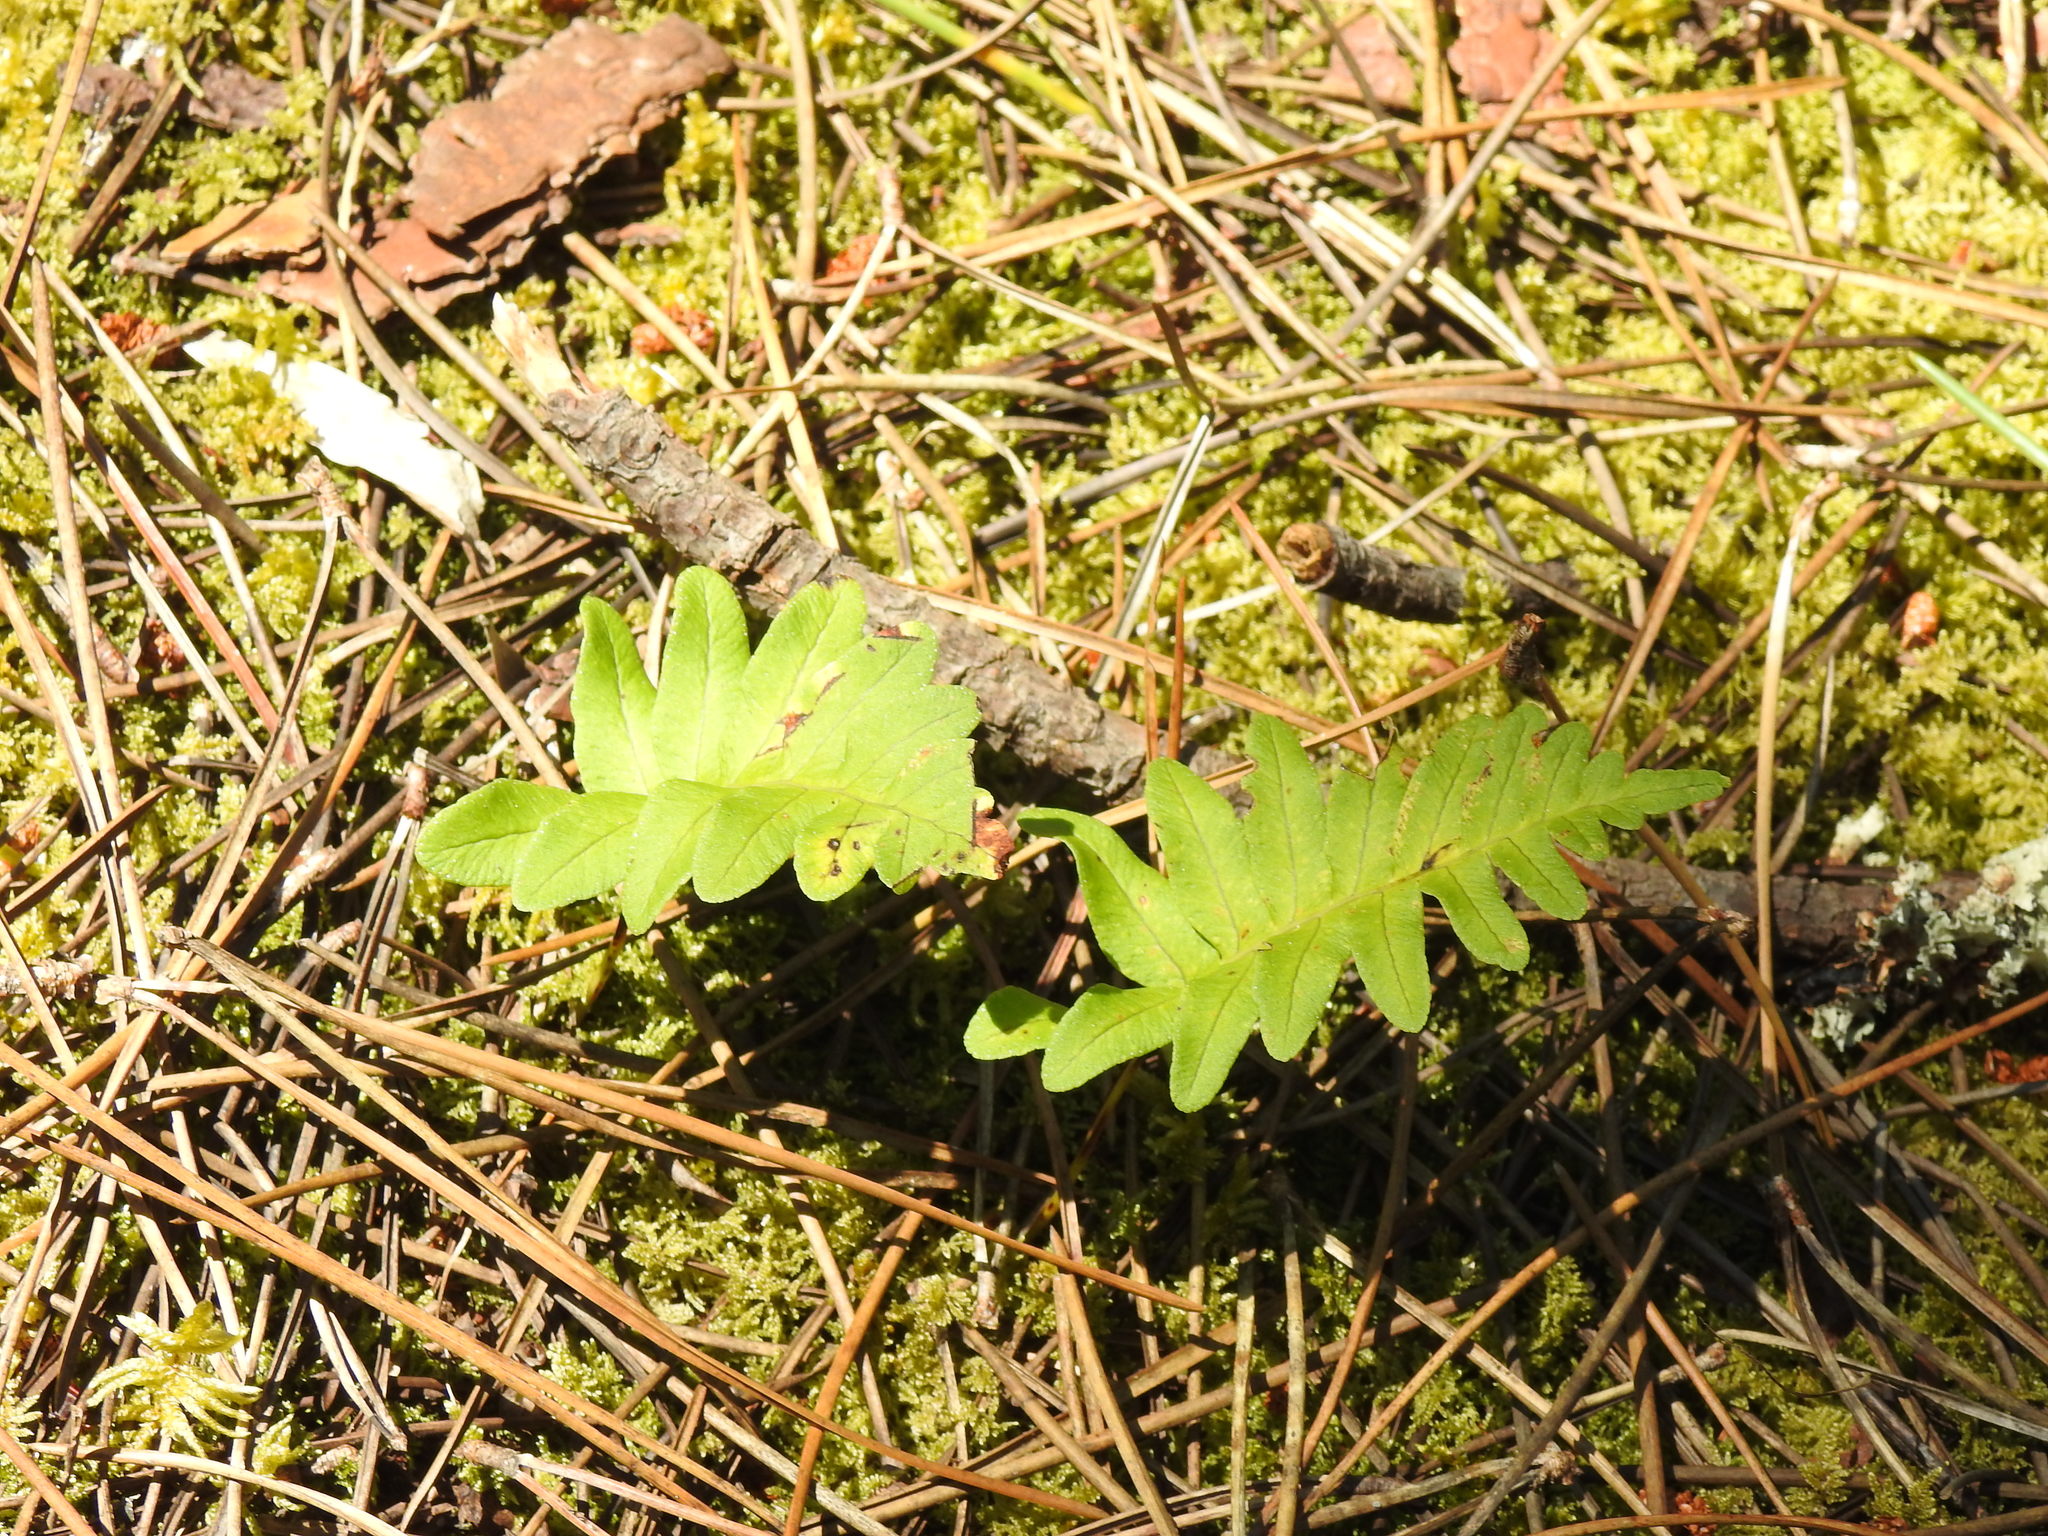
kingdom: Plantae
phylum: Tracheophyta
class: Polypodiopsida
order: Polypodiales
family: Polypodiaceae
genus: Polypodium
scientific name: Polypodium cambricum
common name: Southern polypody
